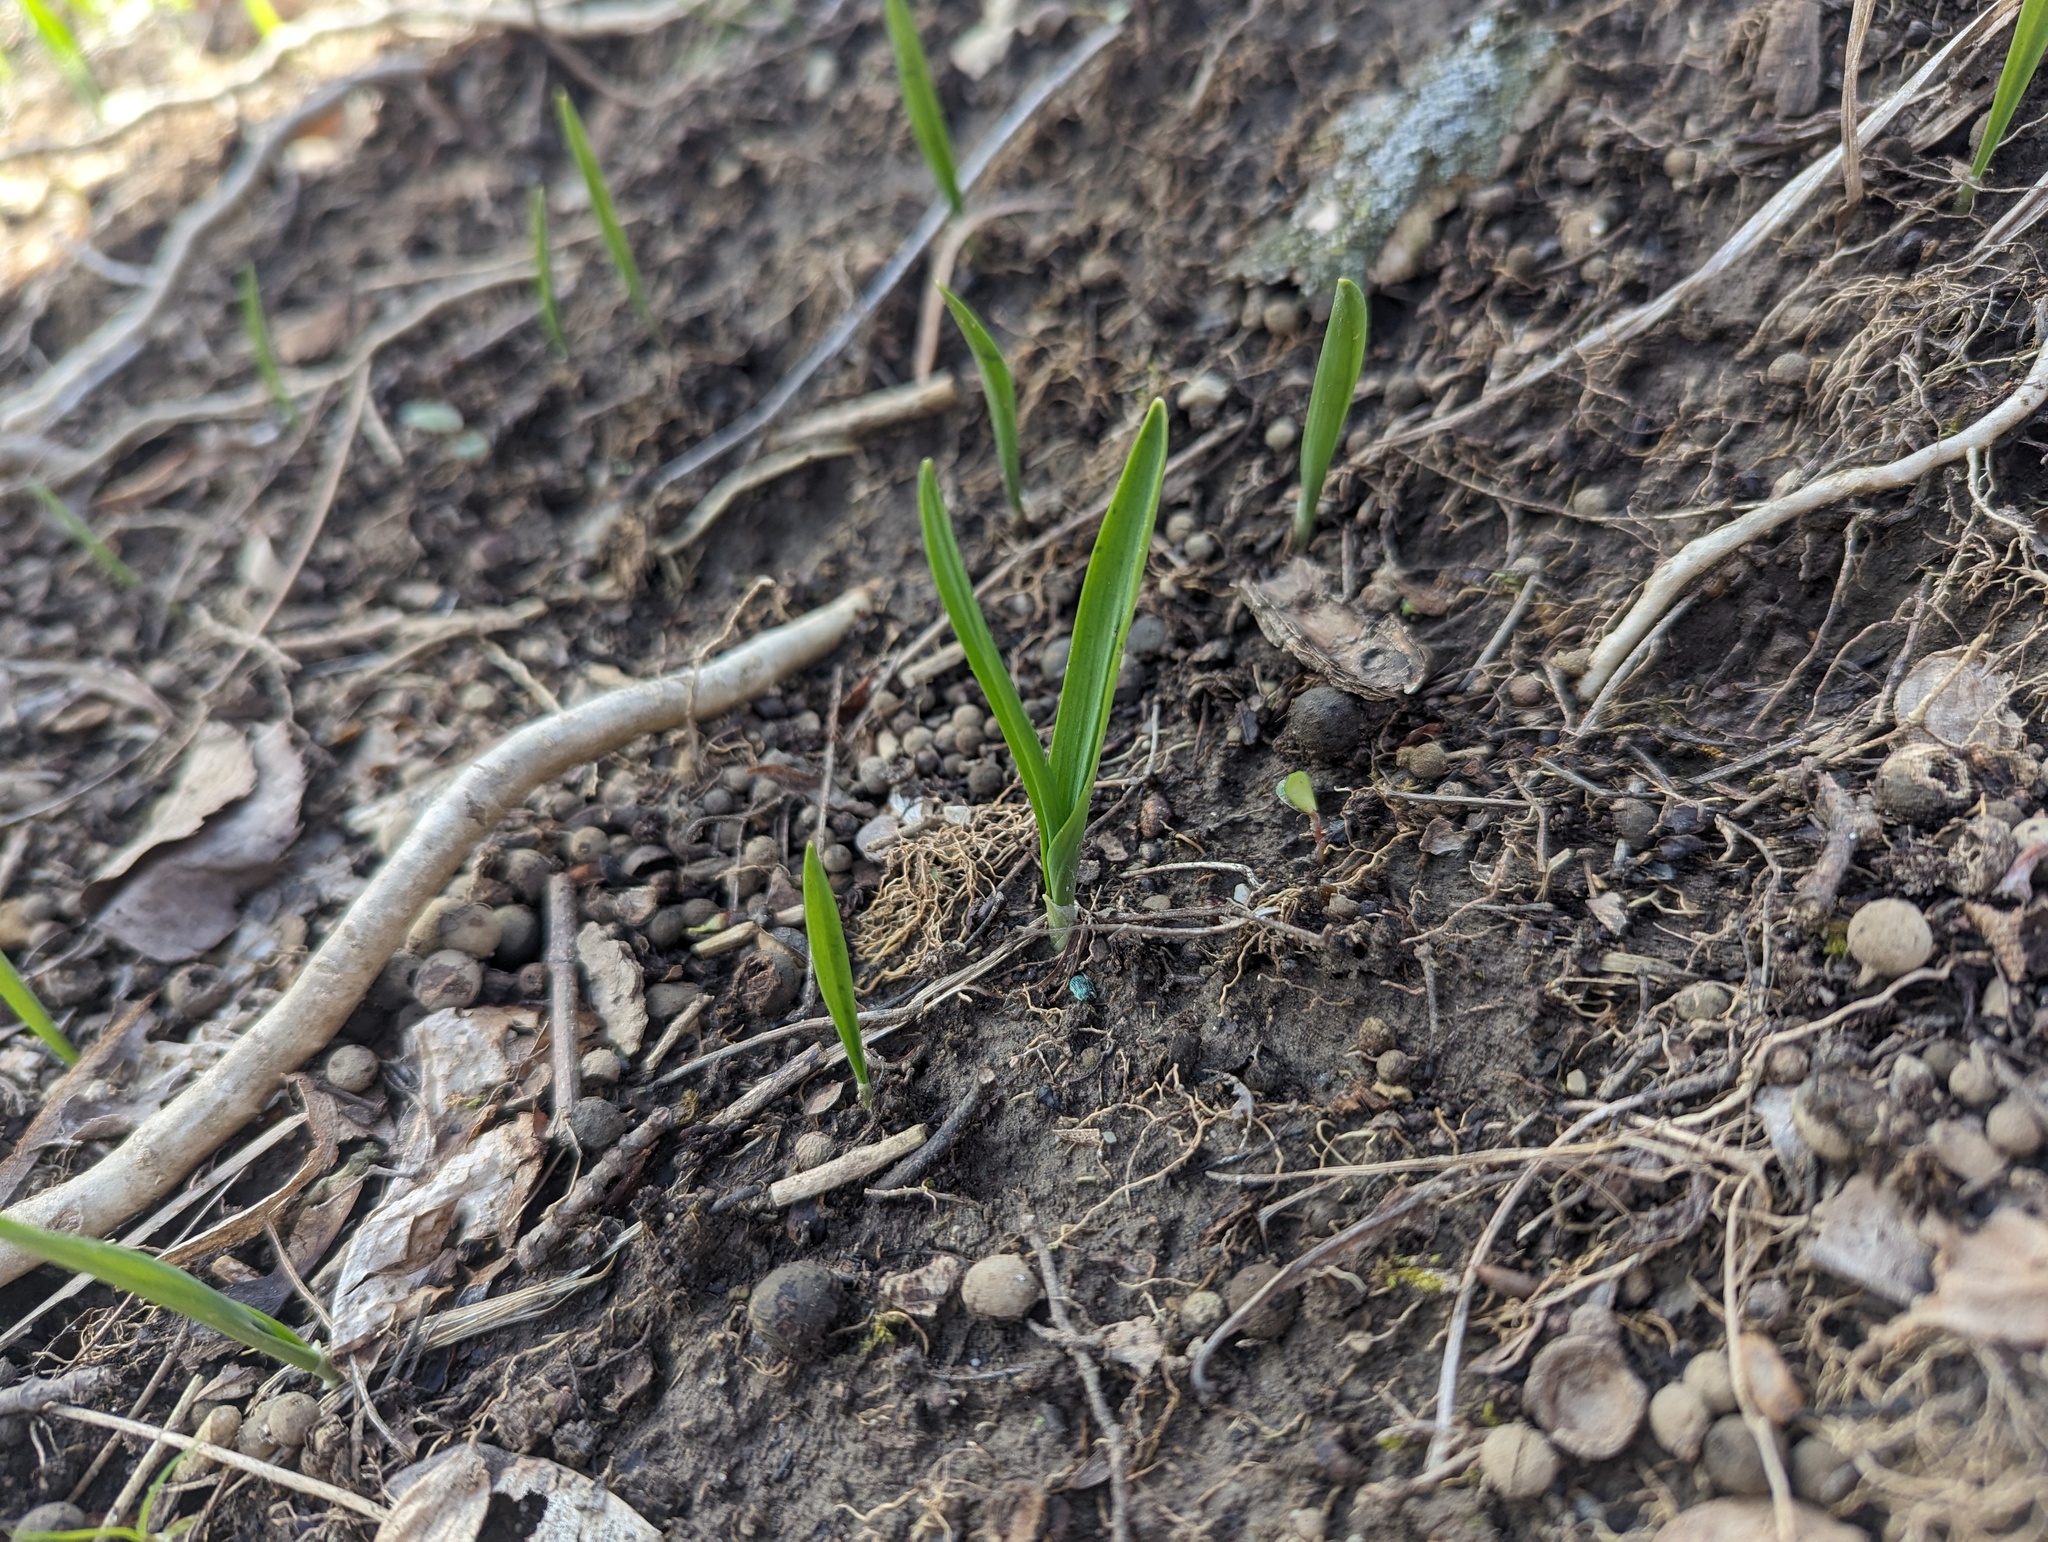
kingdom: Plantae
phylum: Tracheophyta
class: Liliopsida
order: Asparagales
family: Amaryllidaceae
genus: Allium
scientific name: Allium tricoccum
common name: Ramp
